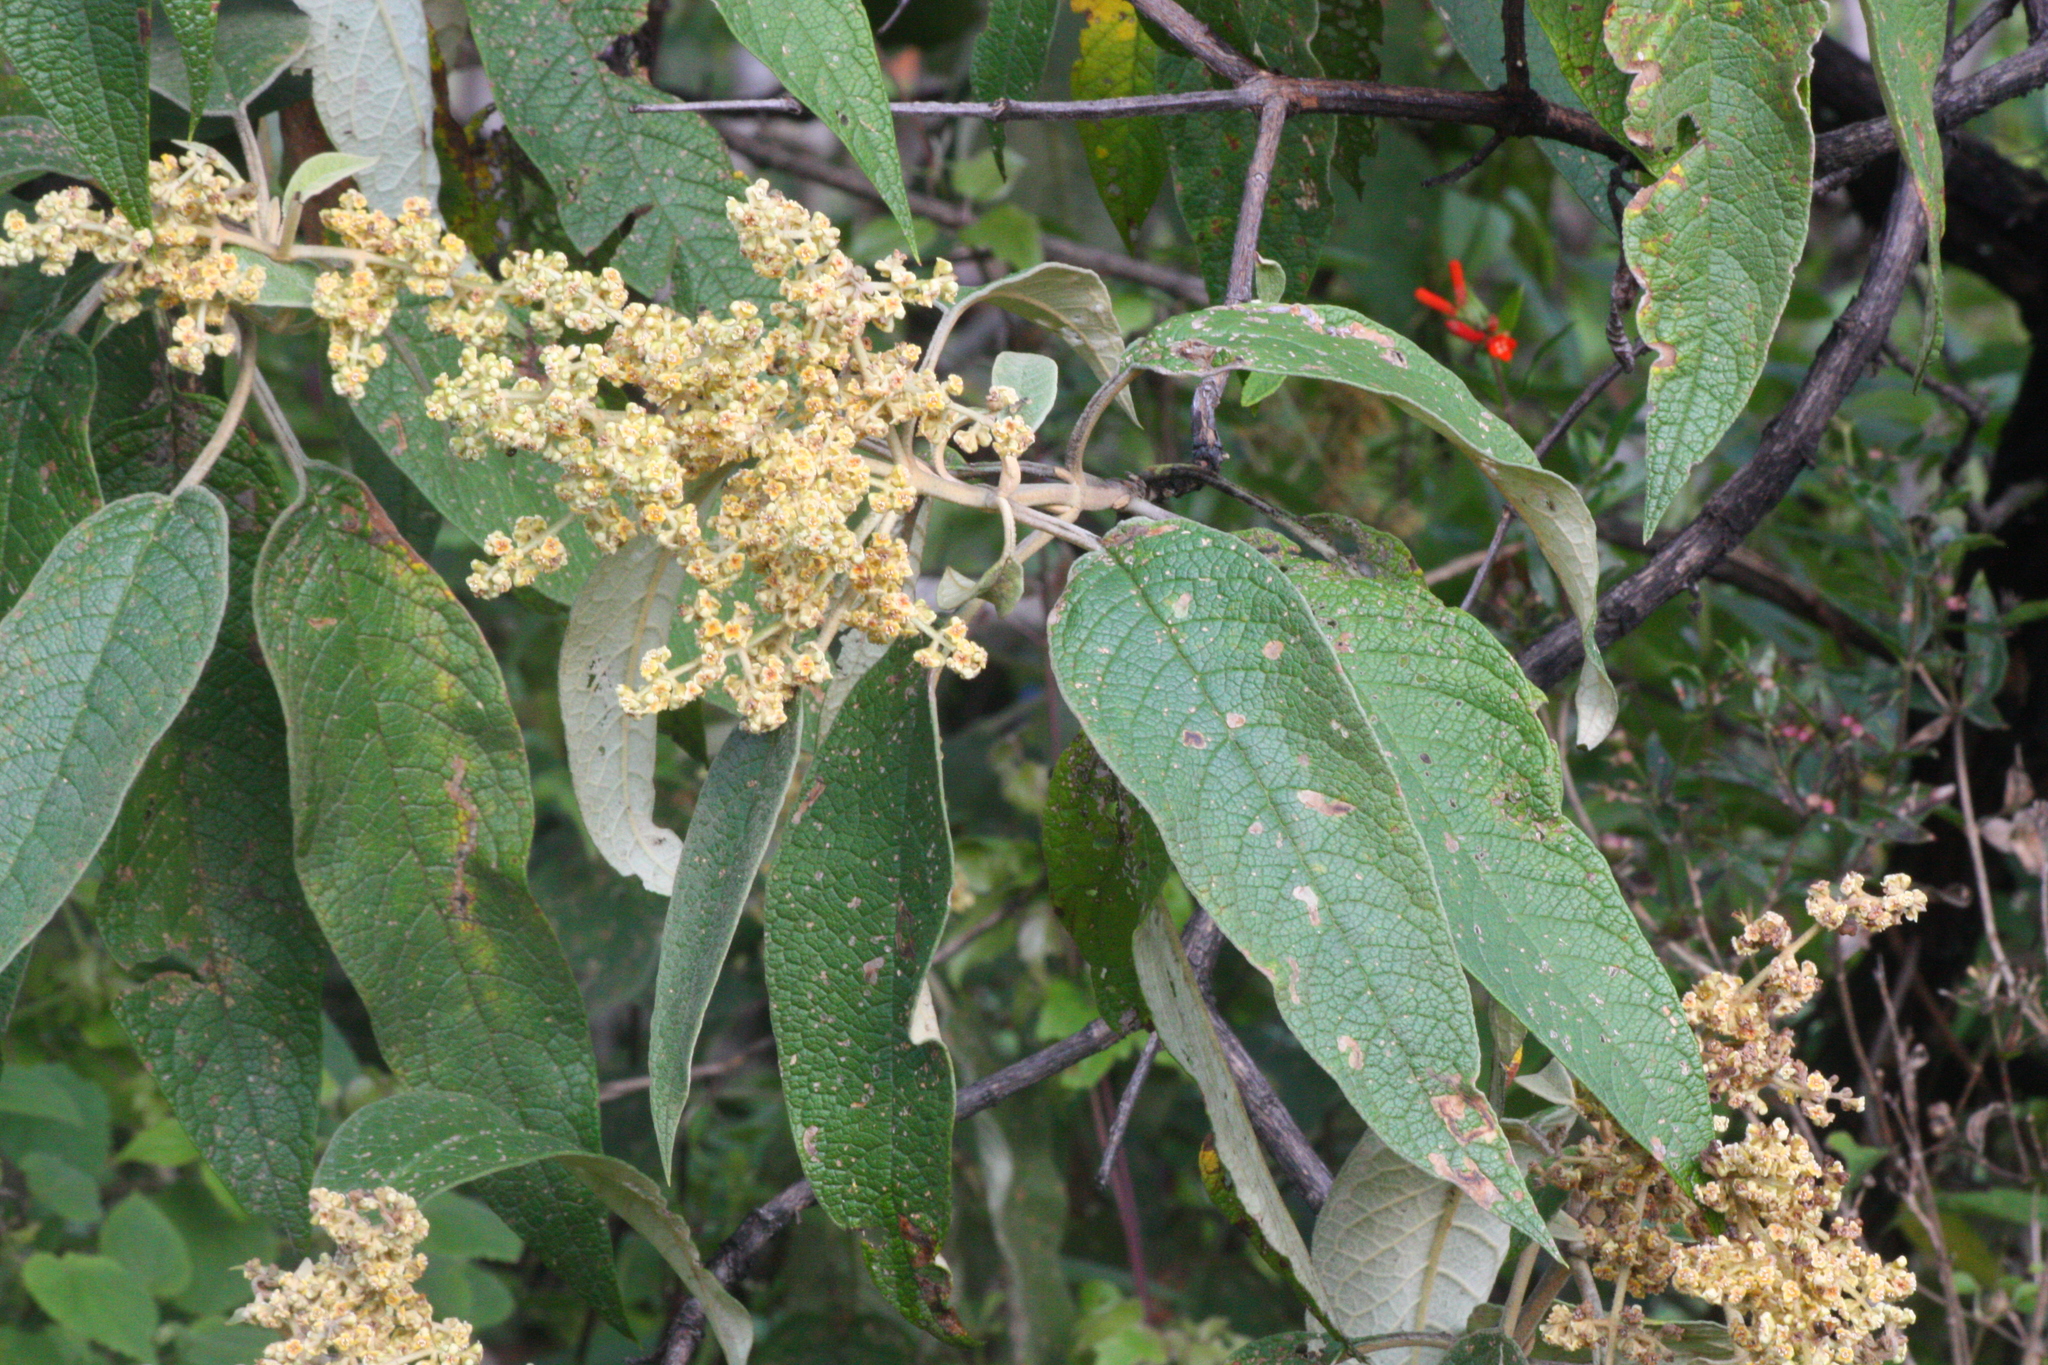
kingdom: Plantae
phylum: Tracheophyta
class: Magnoliopsida
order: Lamiales
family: Scrophulariaceae
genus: Buddleja
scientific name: Buddleja cordata
